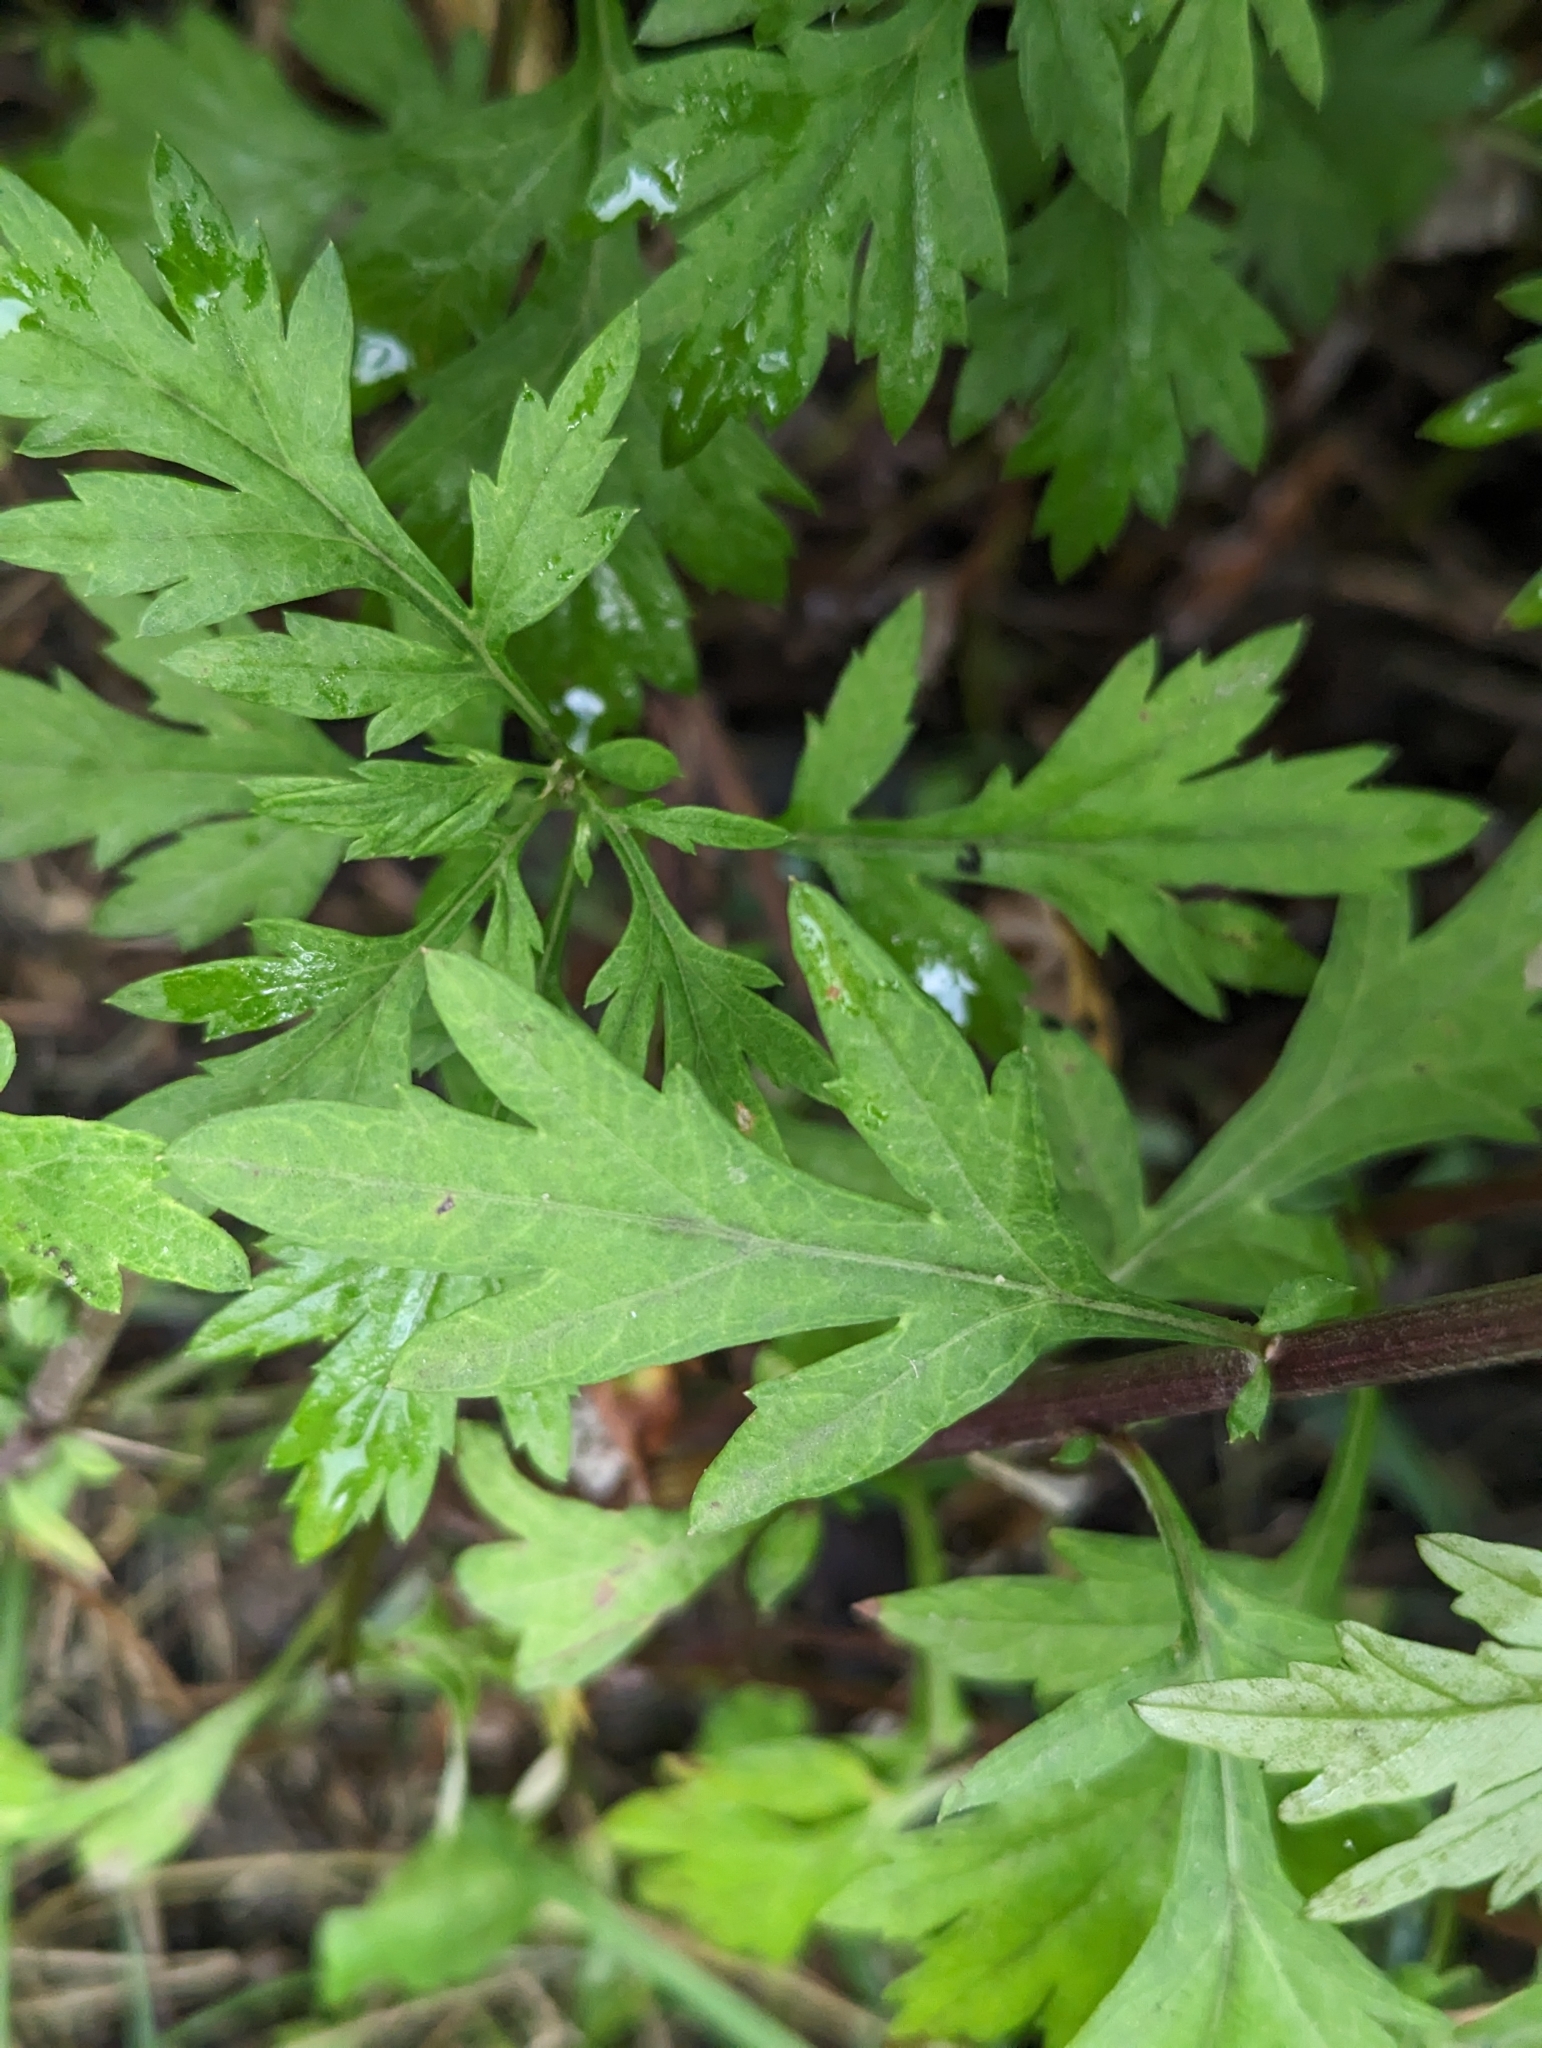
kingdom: Plantae
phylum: Tracheophyta
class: Magnoliopsida
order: Asterales
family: Asteraceae
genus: Artemisia
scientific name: Artemisia vulgaris
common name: Mugwort
